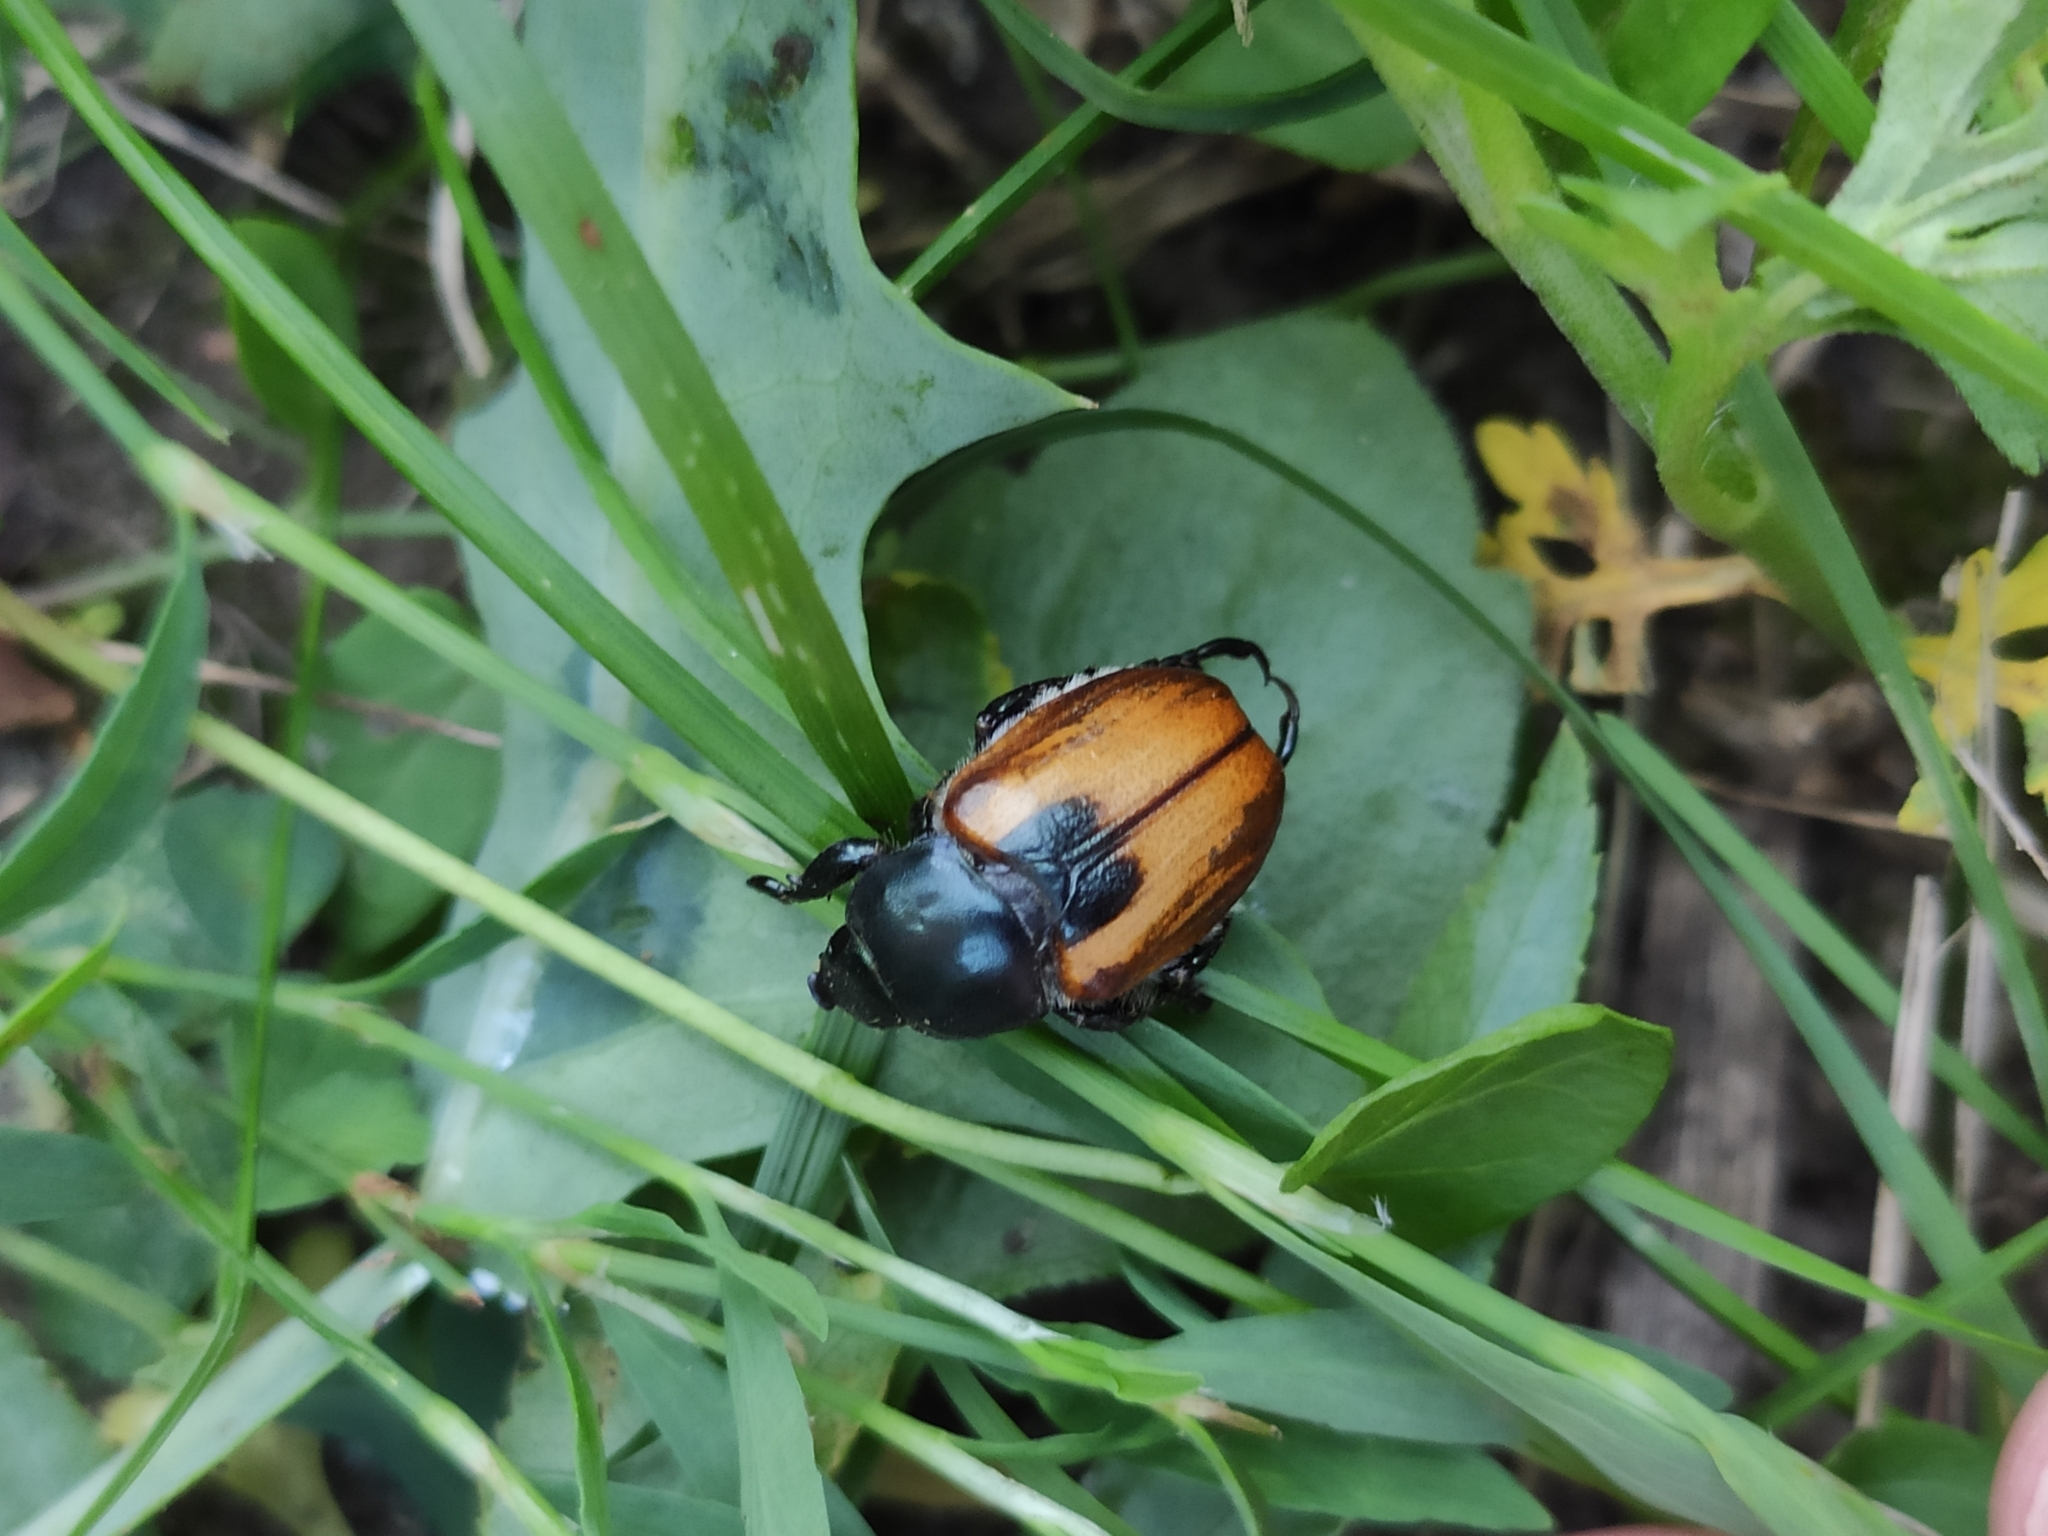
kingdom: Animalia
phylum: Arthropoda
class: Insecta
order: Coleoptera
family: Scarabaeidae
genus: Anisoplia
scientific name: Anisoplia austriaca
